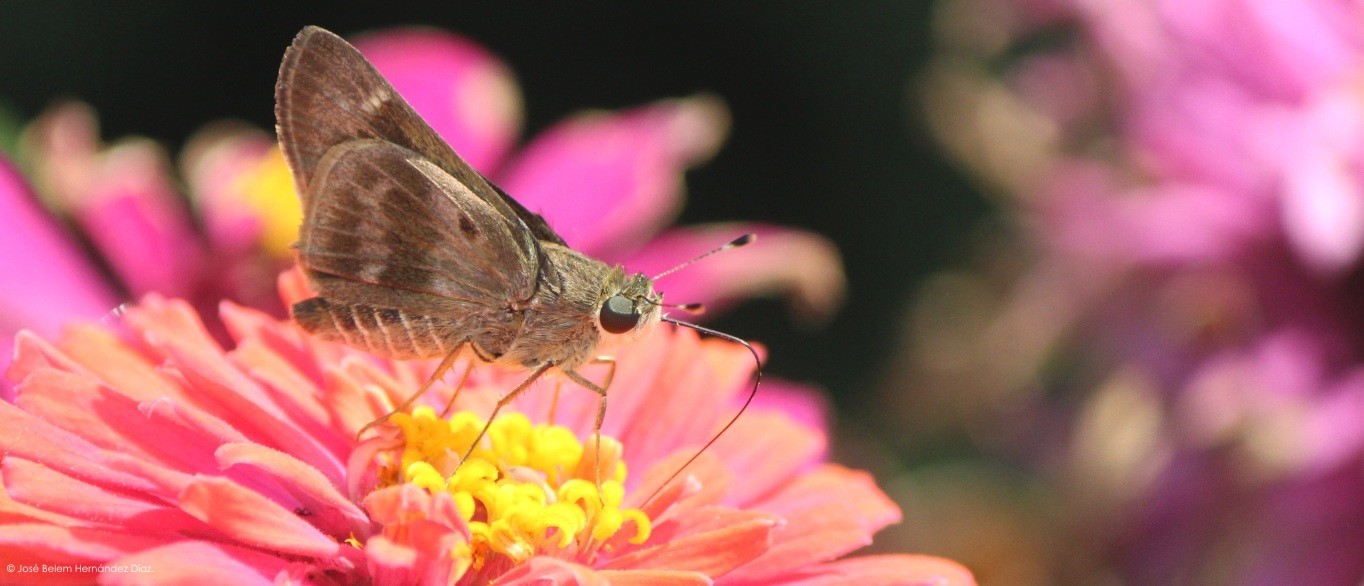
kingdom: Animalia
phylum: Arthropoda
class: Insecta
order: Lepidoptera
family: Hesperiidae
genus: Nyctelius
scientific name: Nyctelius nyctelius
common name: Violet-banded skipper
